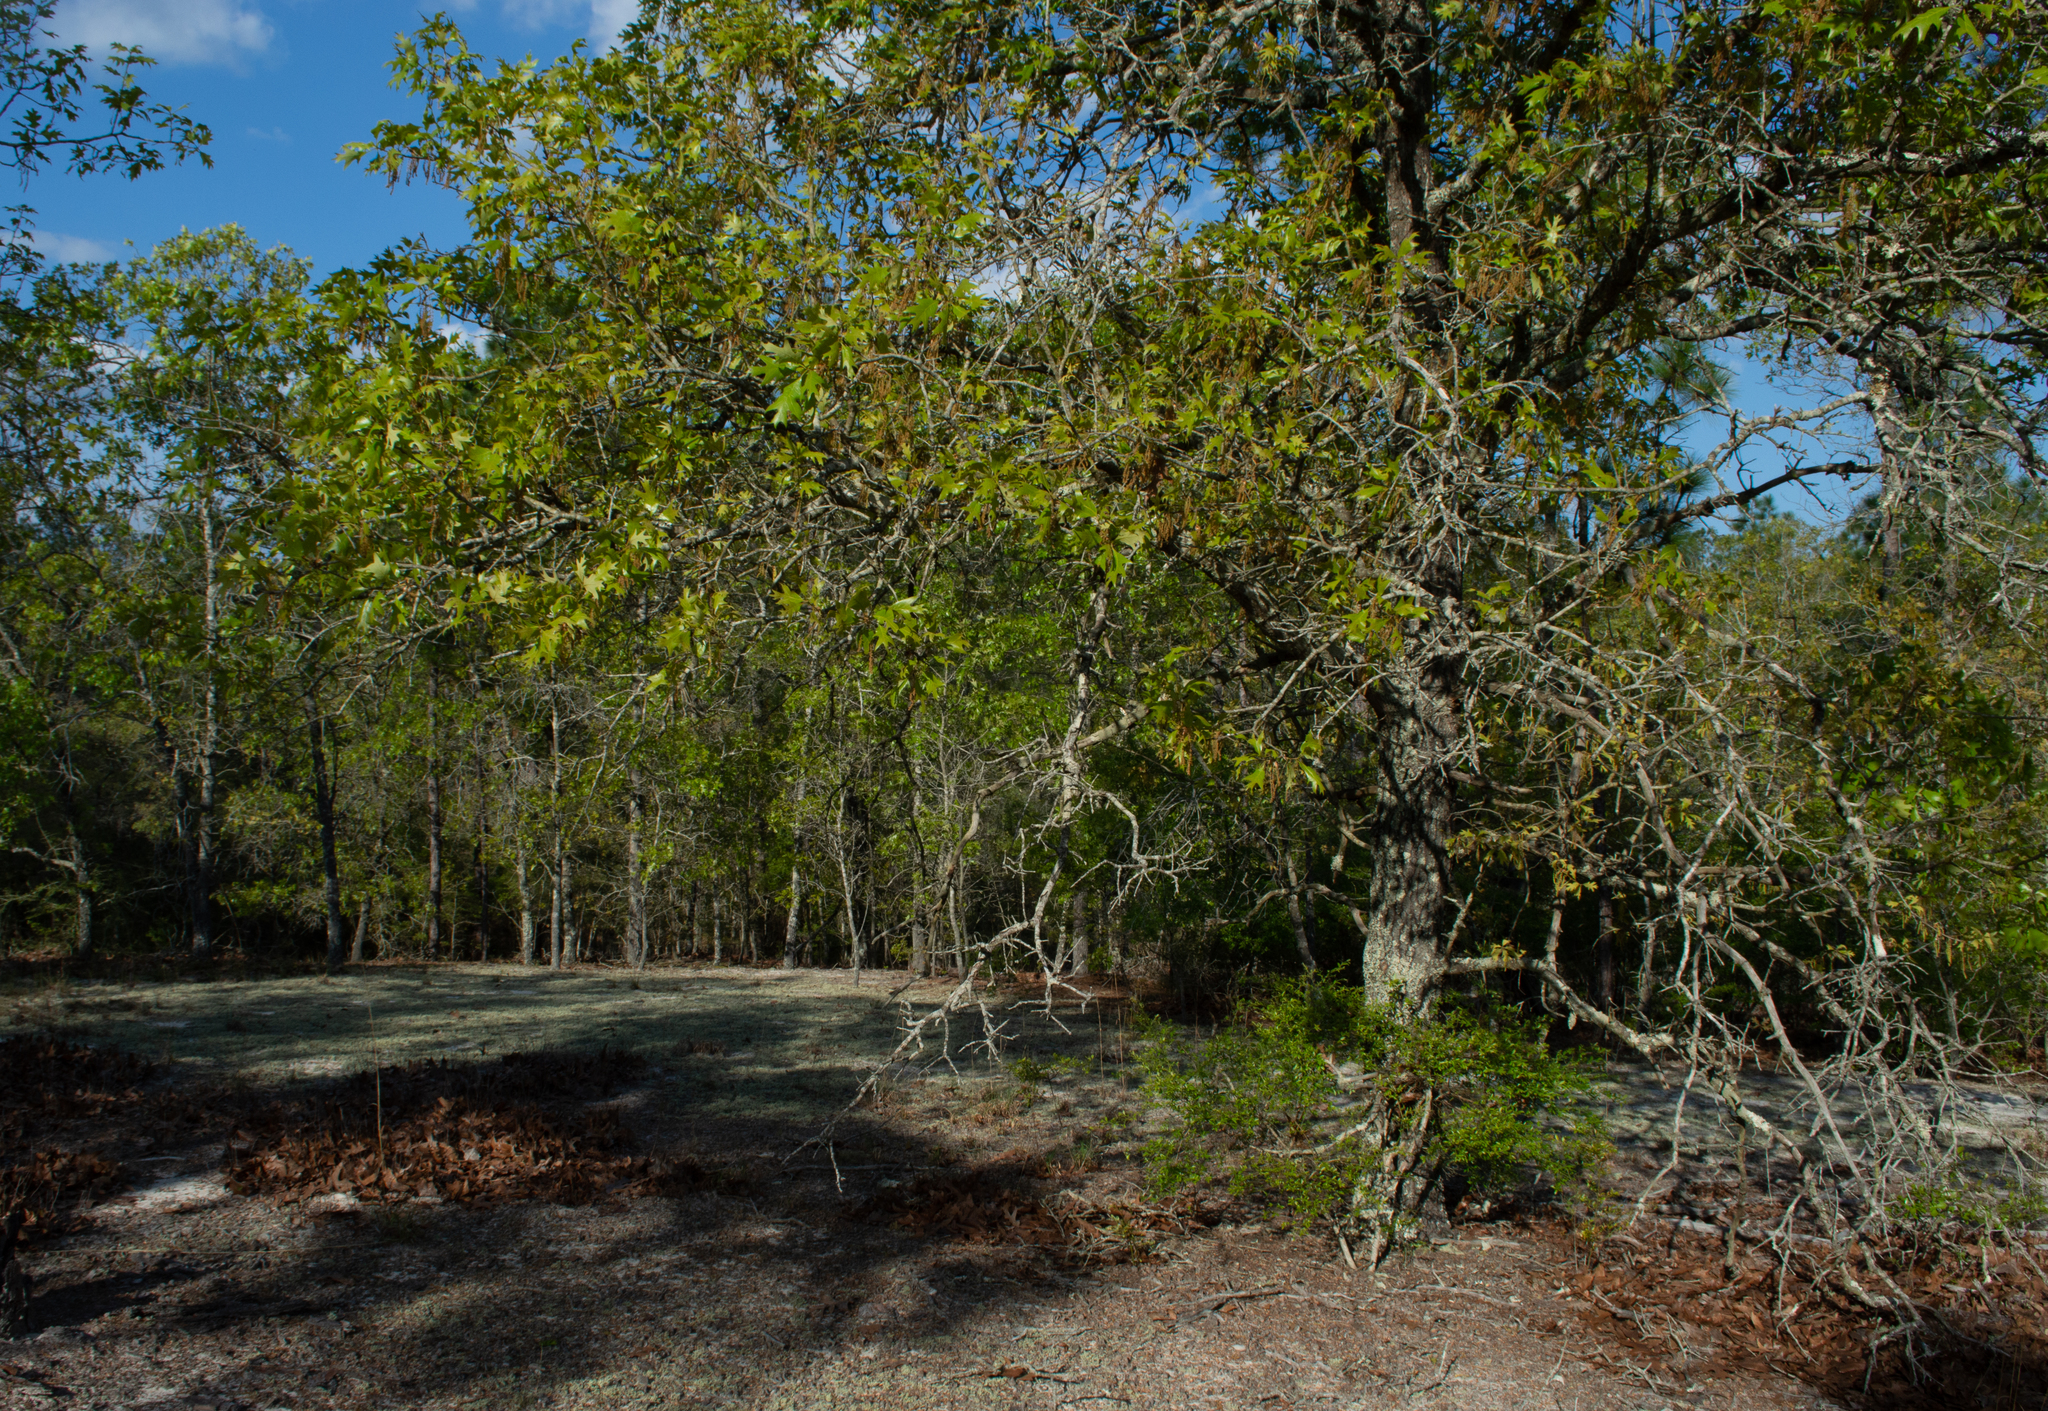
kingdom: Plantae
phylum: Tracheophyta
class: Magnoliopsida
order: Fagales
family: Fagaceae
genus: Quercus
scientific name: Quercus laevis
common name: Turkey oak
